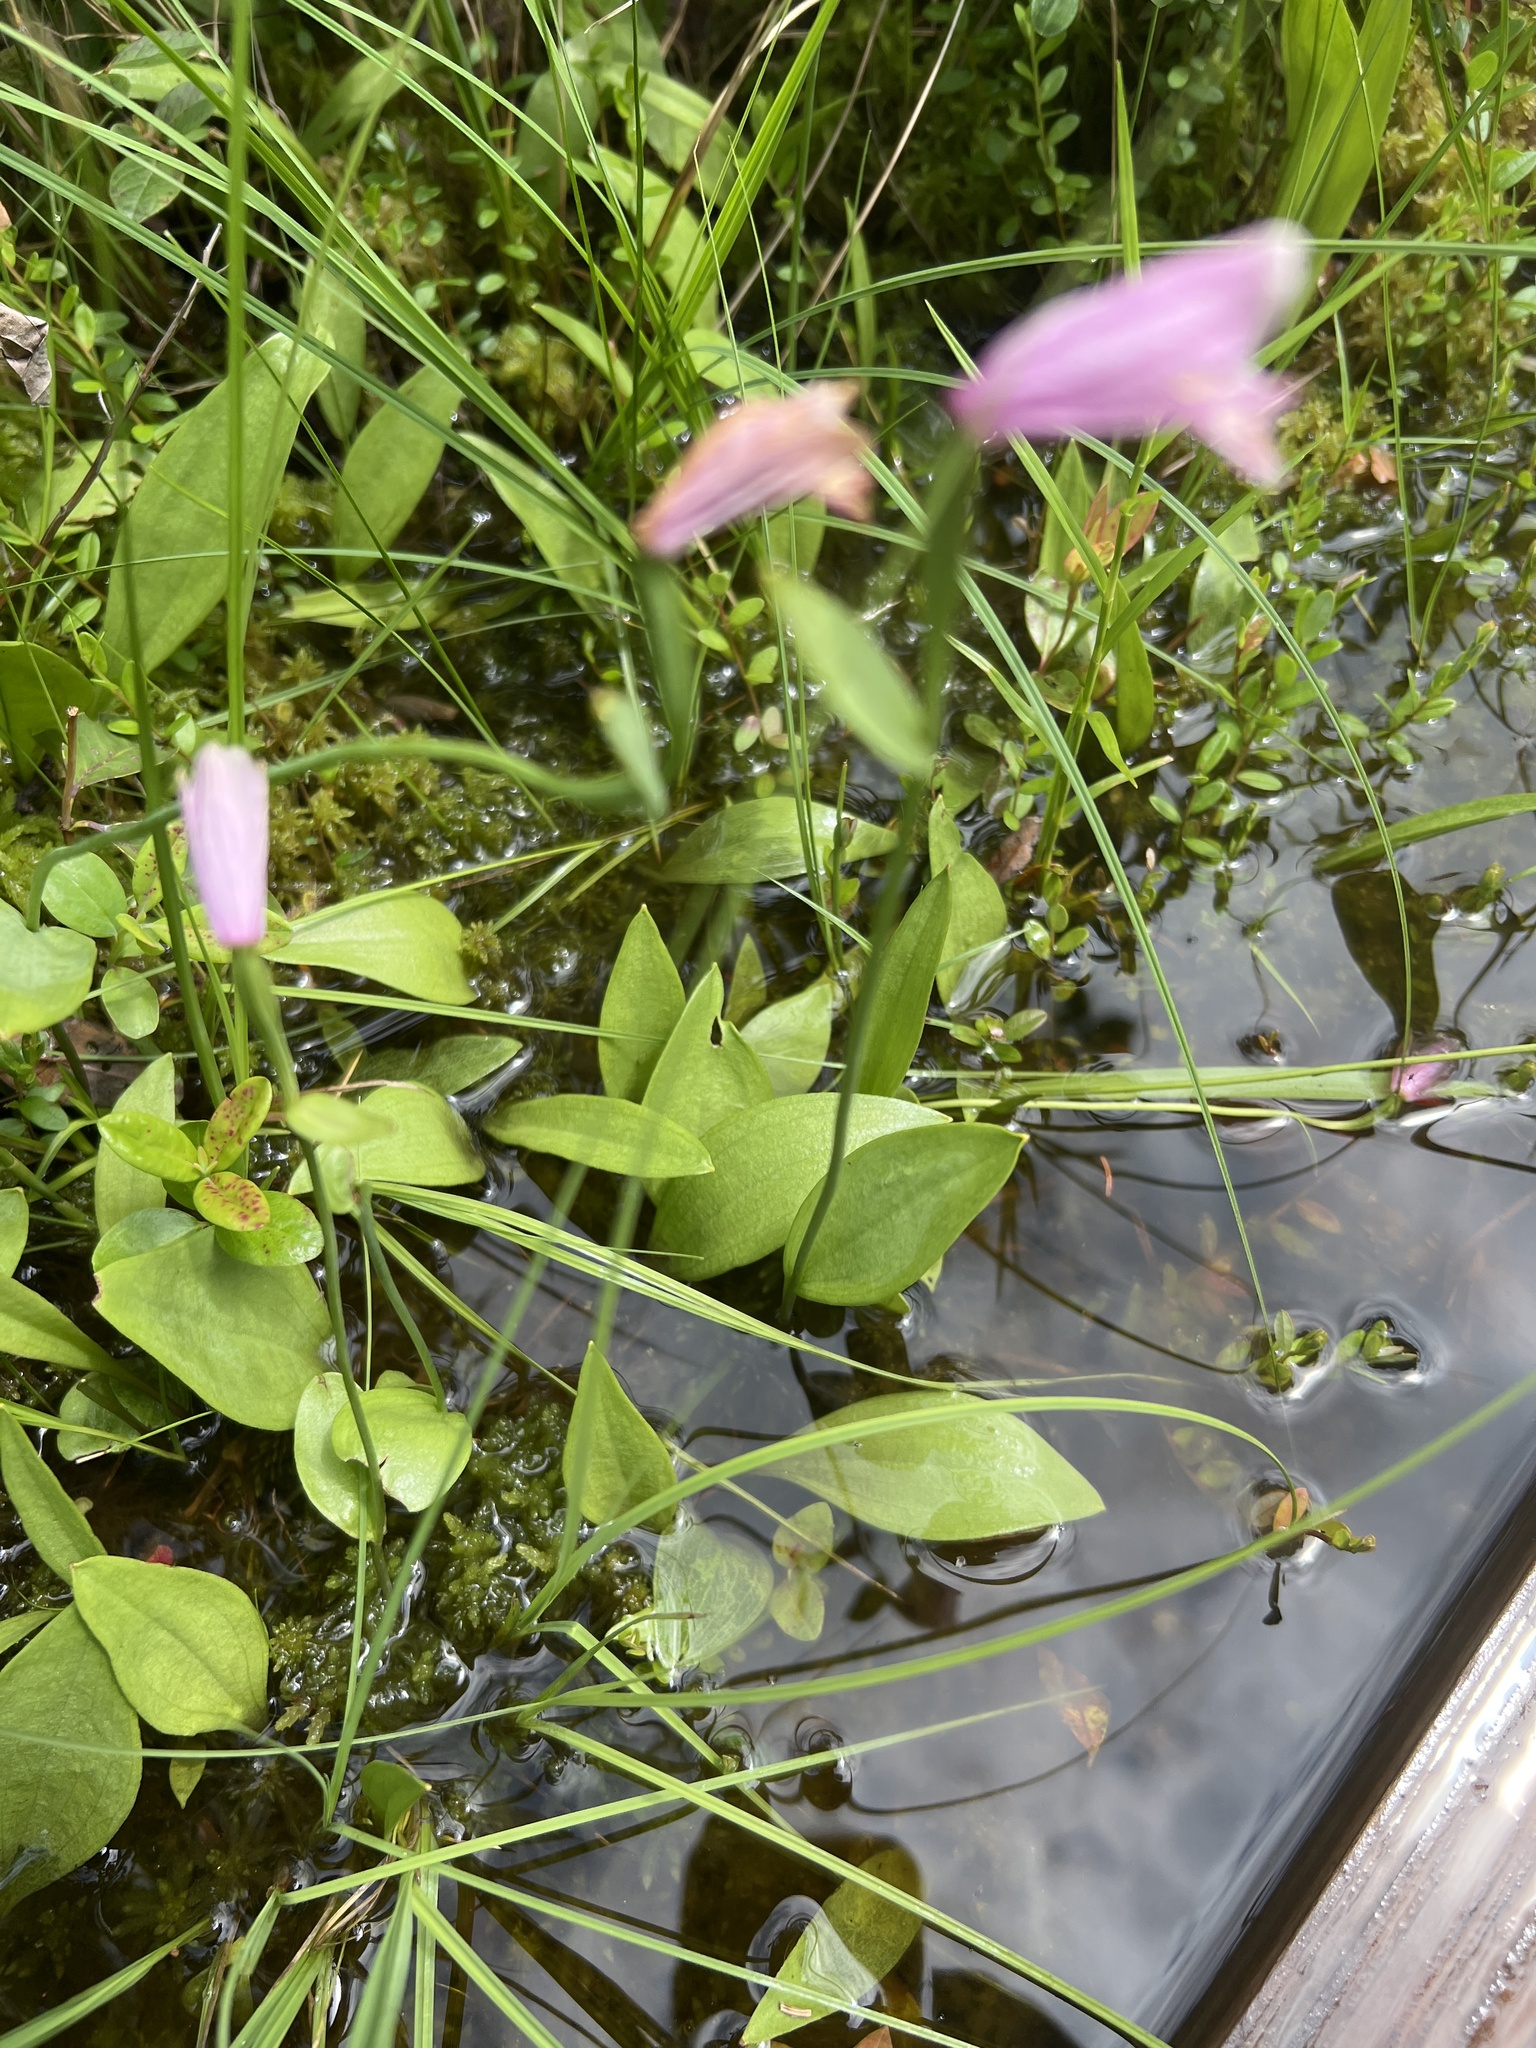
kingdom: Plantae
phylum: Tracheophyta
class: Liliopsida
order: Asparagales
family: Orchidaceae
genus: Pogonia
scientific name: Pogonia ophioglossoides
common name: Rose pogonia
